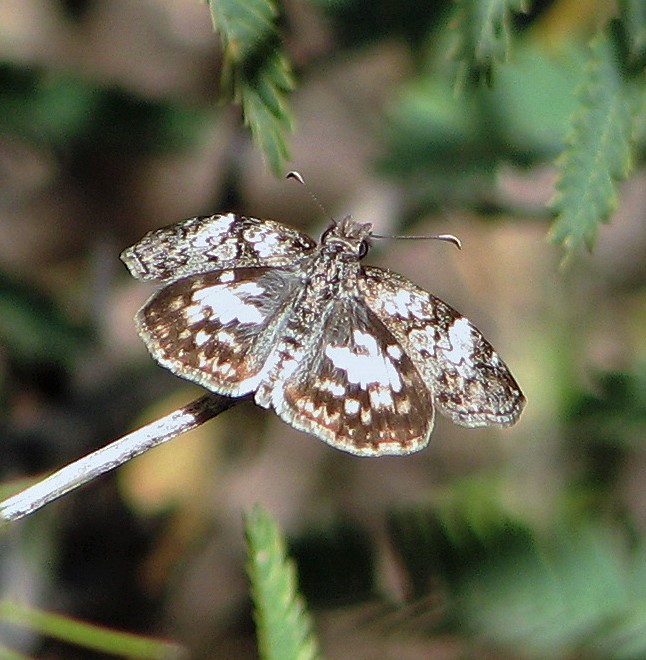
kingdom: Animalia
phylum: Arthropoda
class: Insecta
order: Lepidoptera
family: Hesperiidae
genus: Chiomara
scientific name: Chiomara asychis
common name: White-patterned skipper
